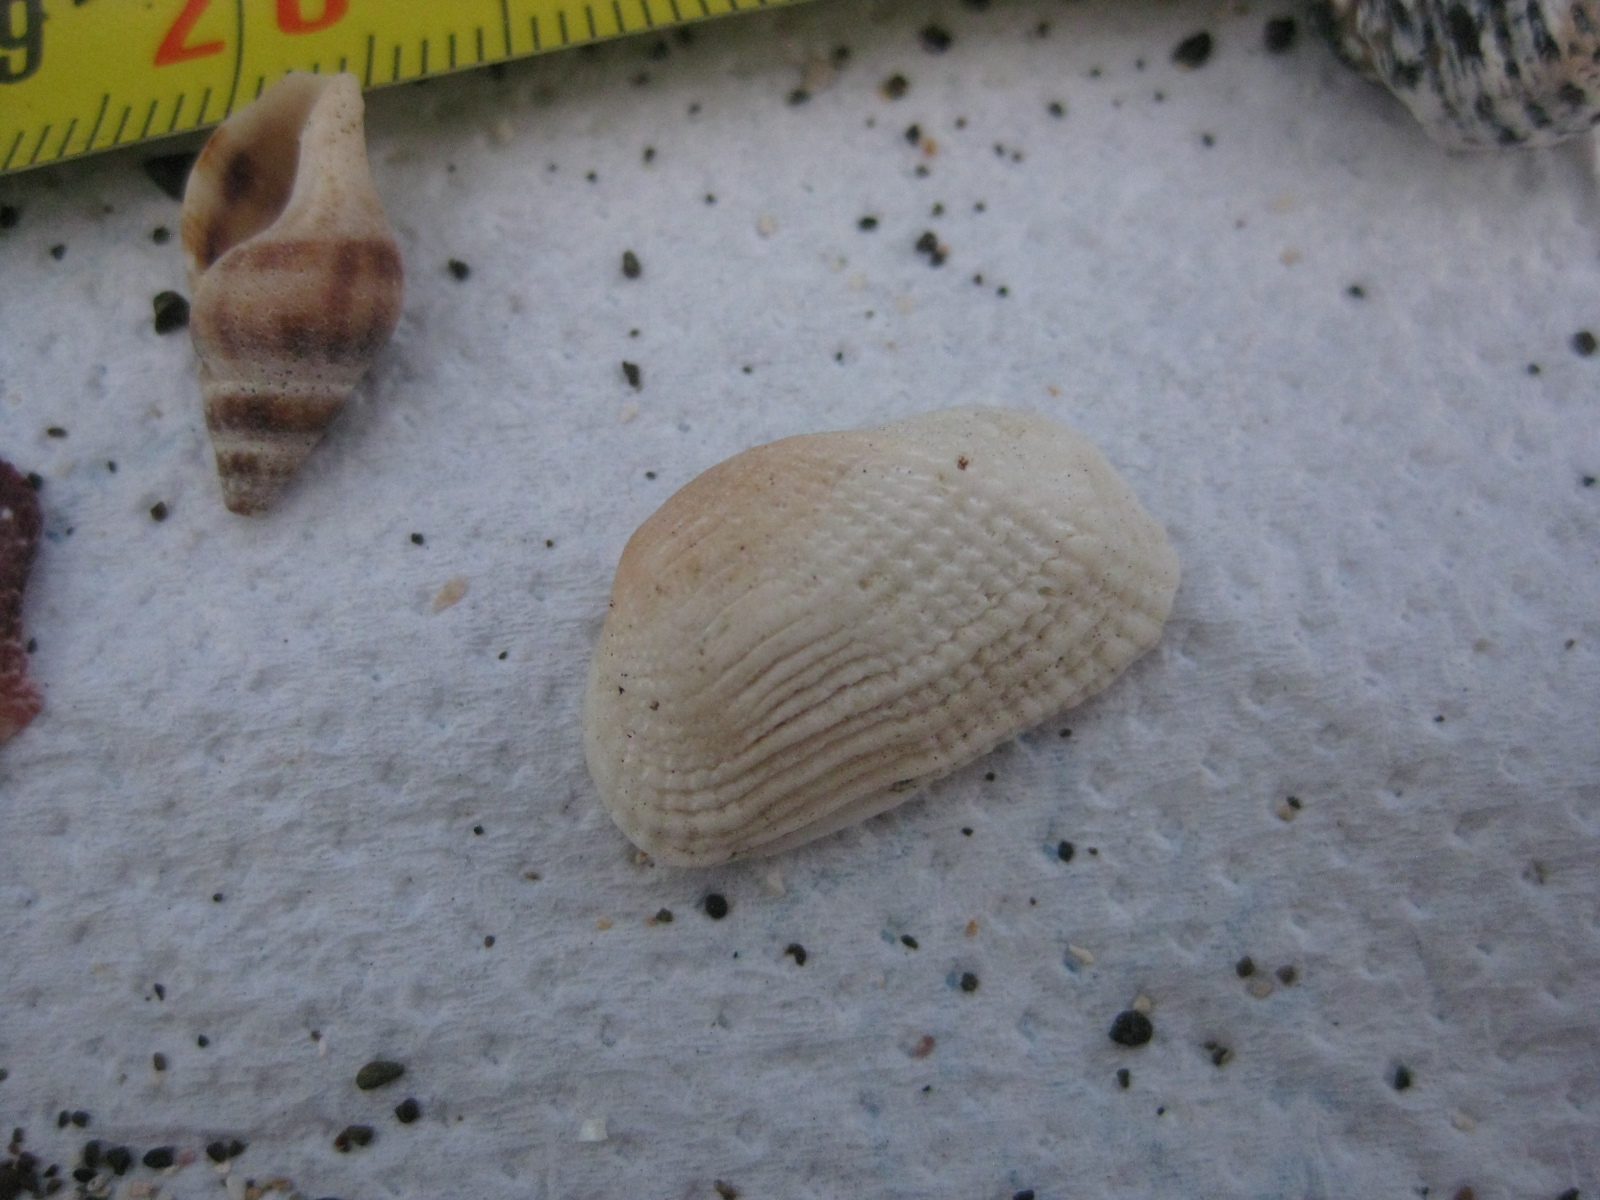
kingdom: Animalia
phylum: Mollusca
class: Bivalvia
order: Arcida
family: Arcidae
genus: Acar
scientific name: Acar sandersonae
